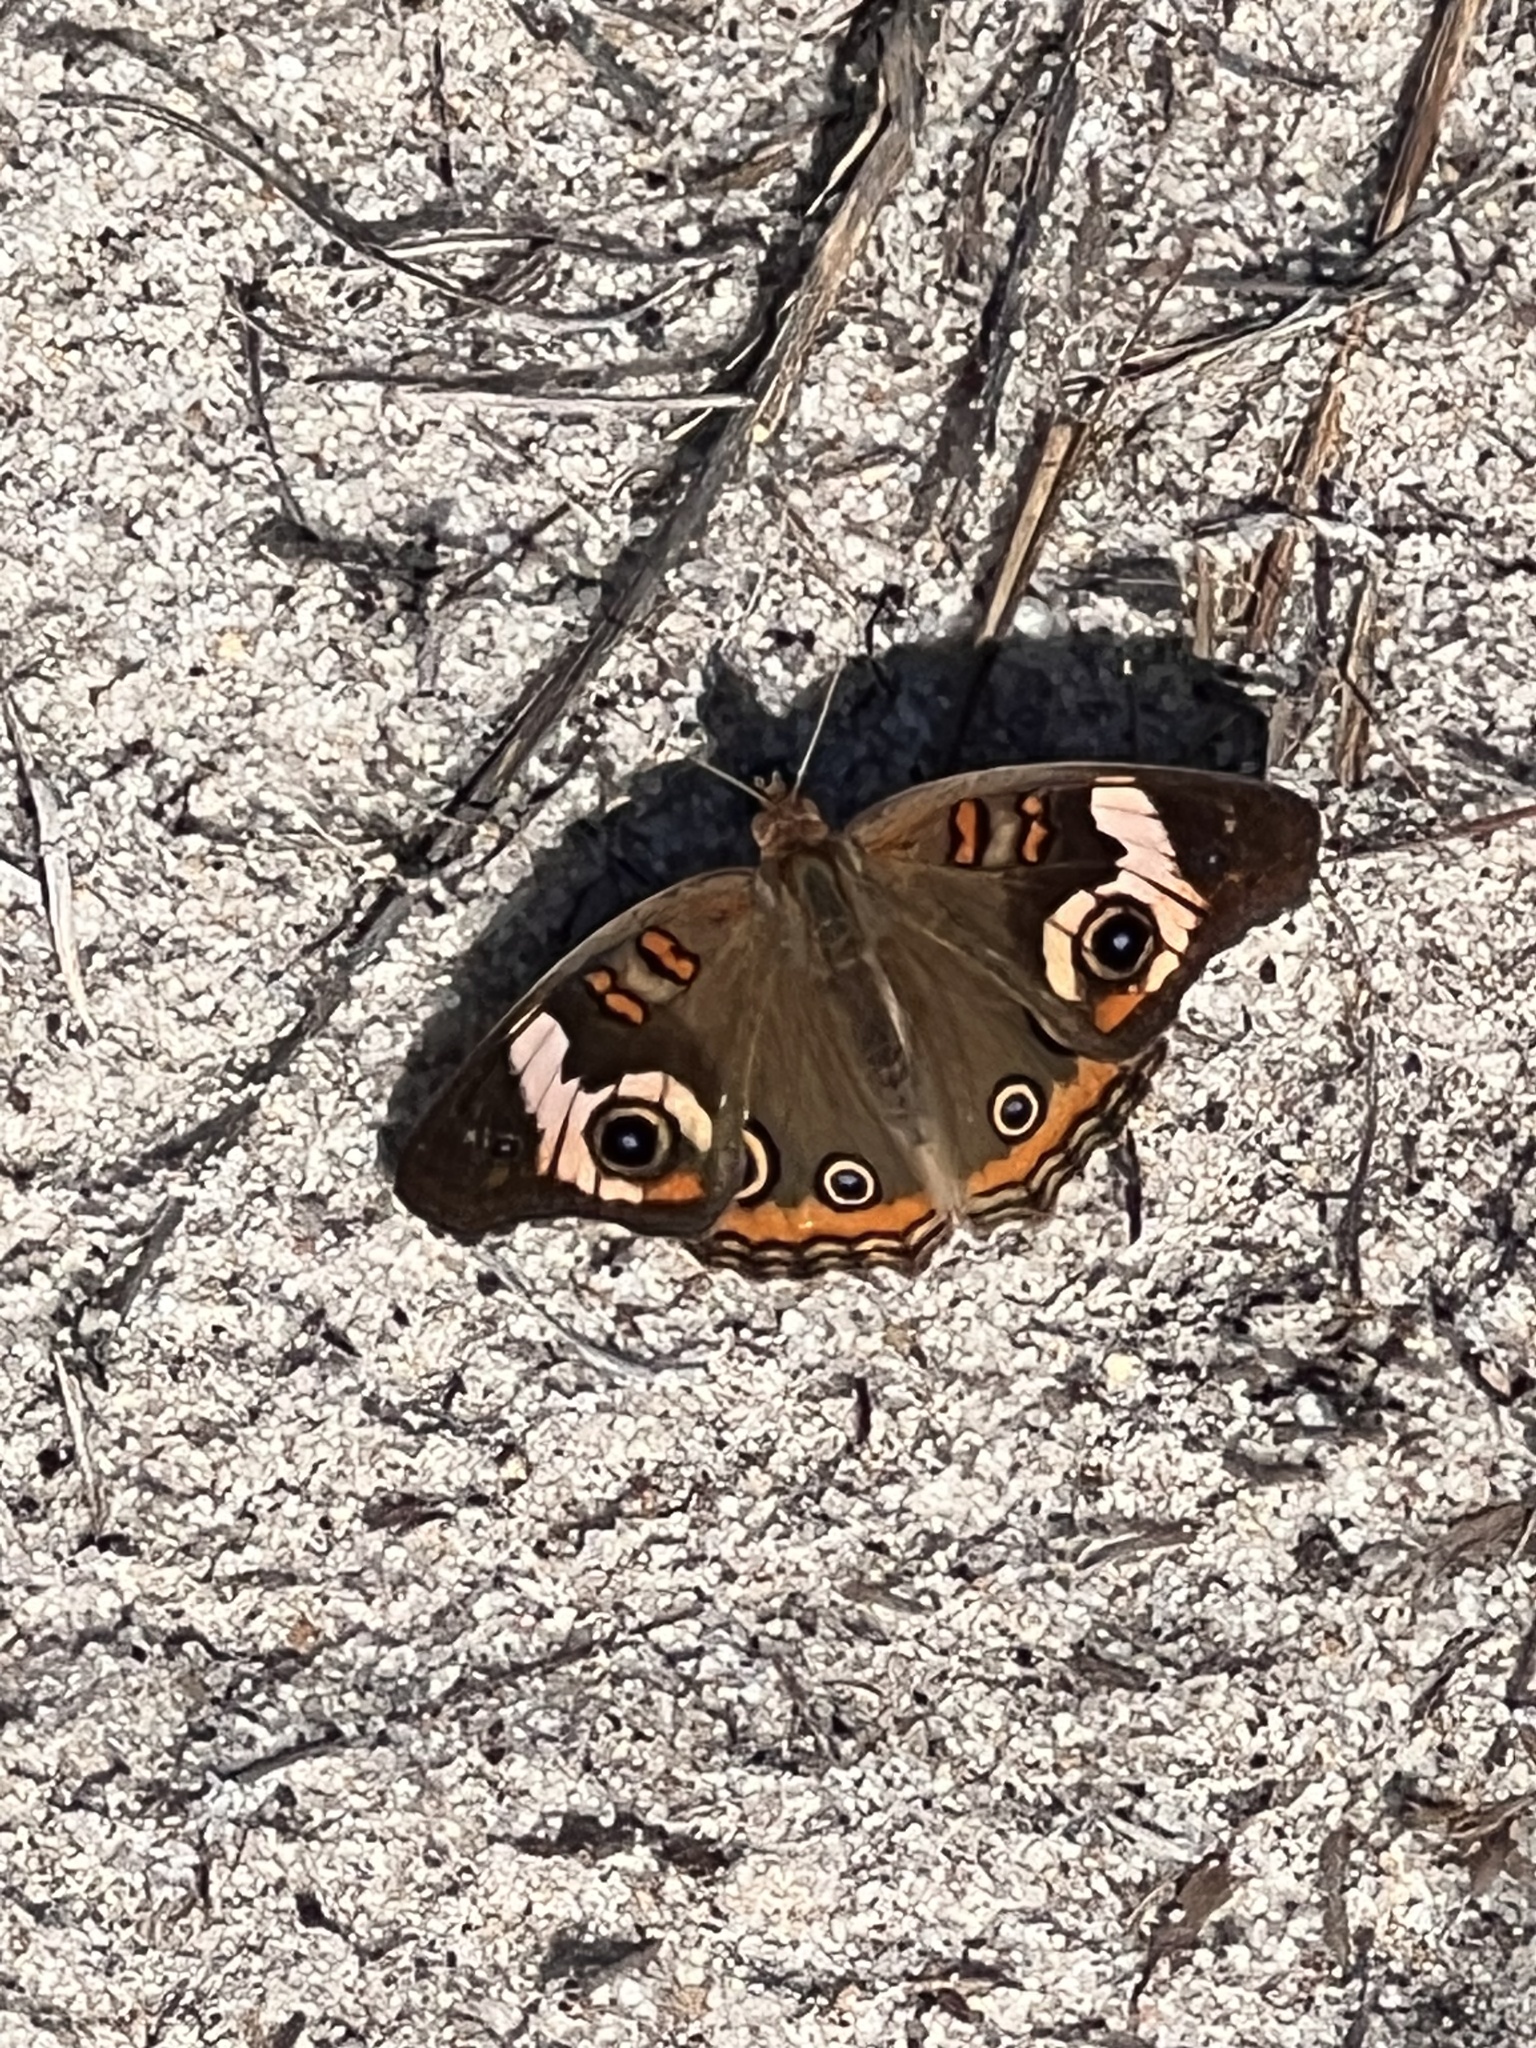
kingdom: Animalia
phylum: Arthropoda
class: Insecta
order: Lepidoptera
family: Nymphalidae
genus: Junonia
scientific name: Junonia coenia
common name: Common buckeye
